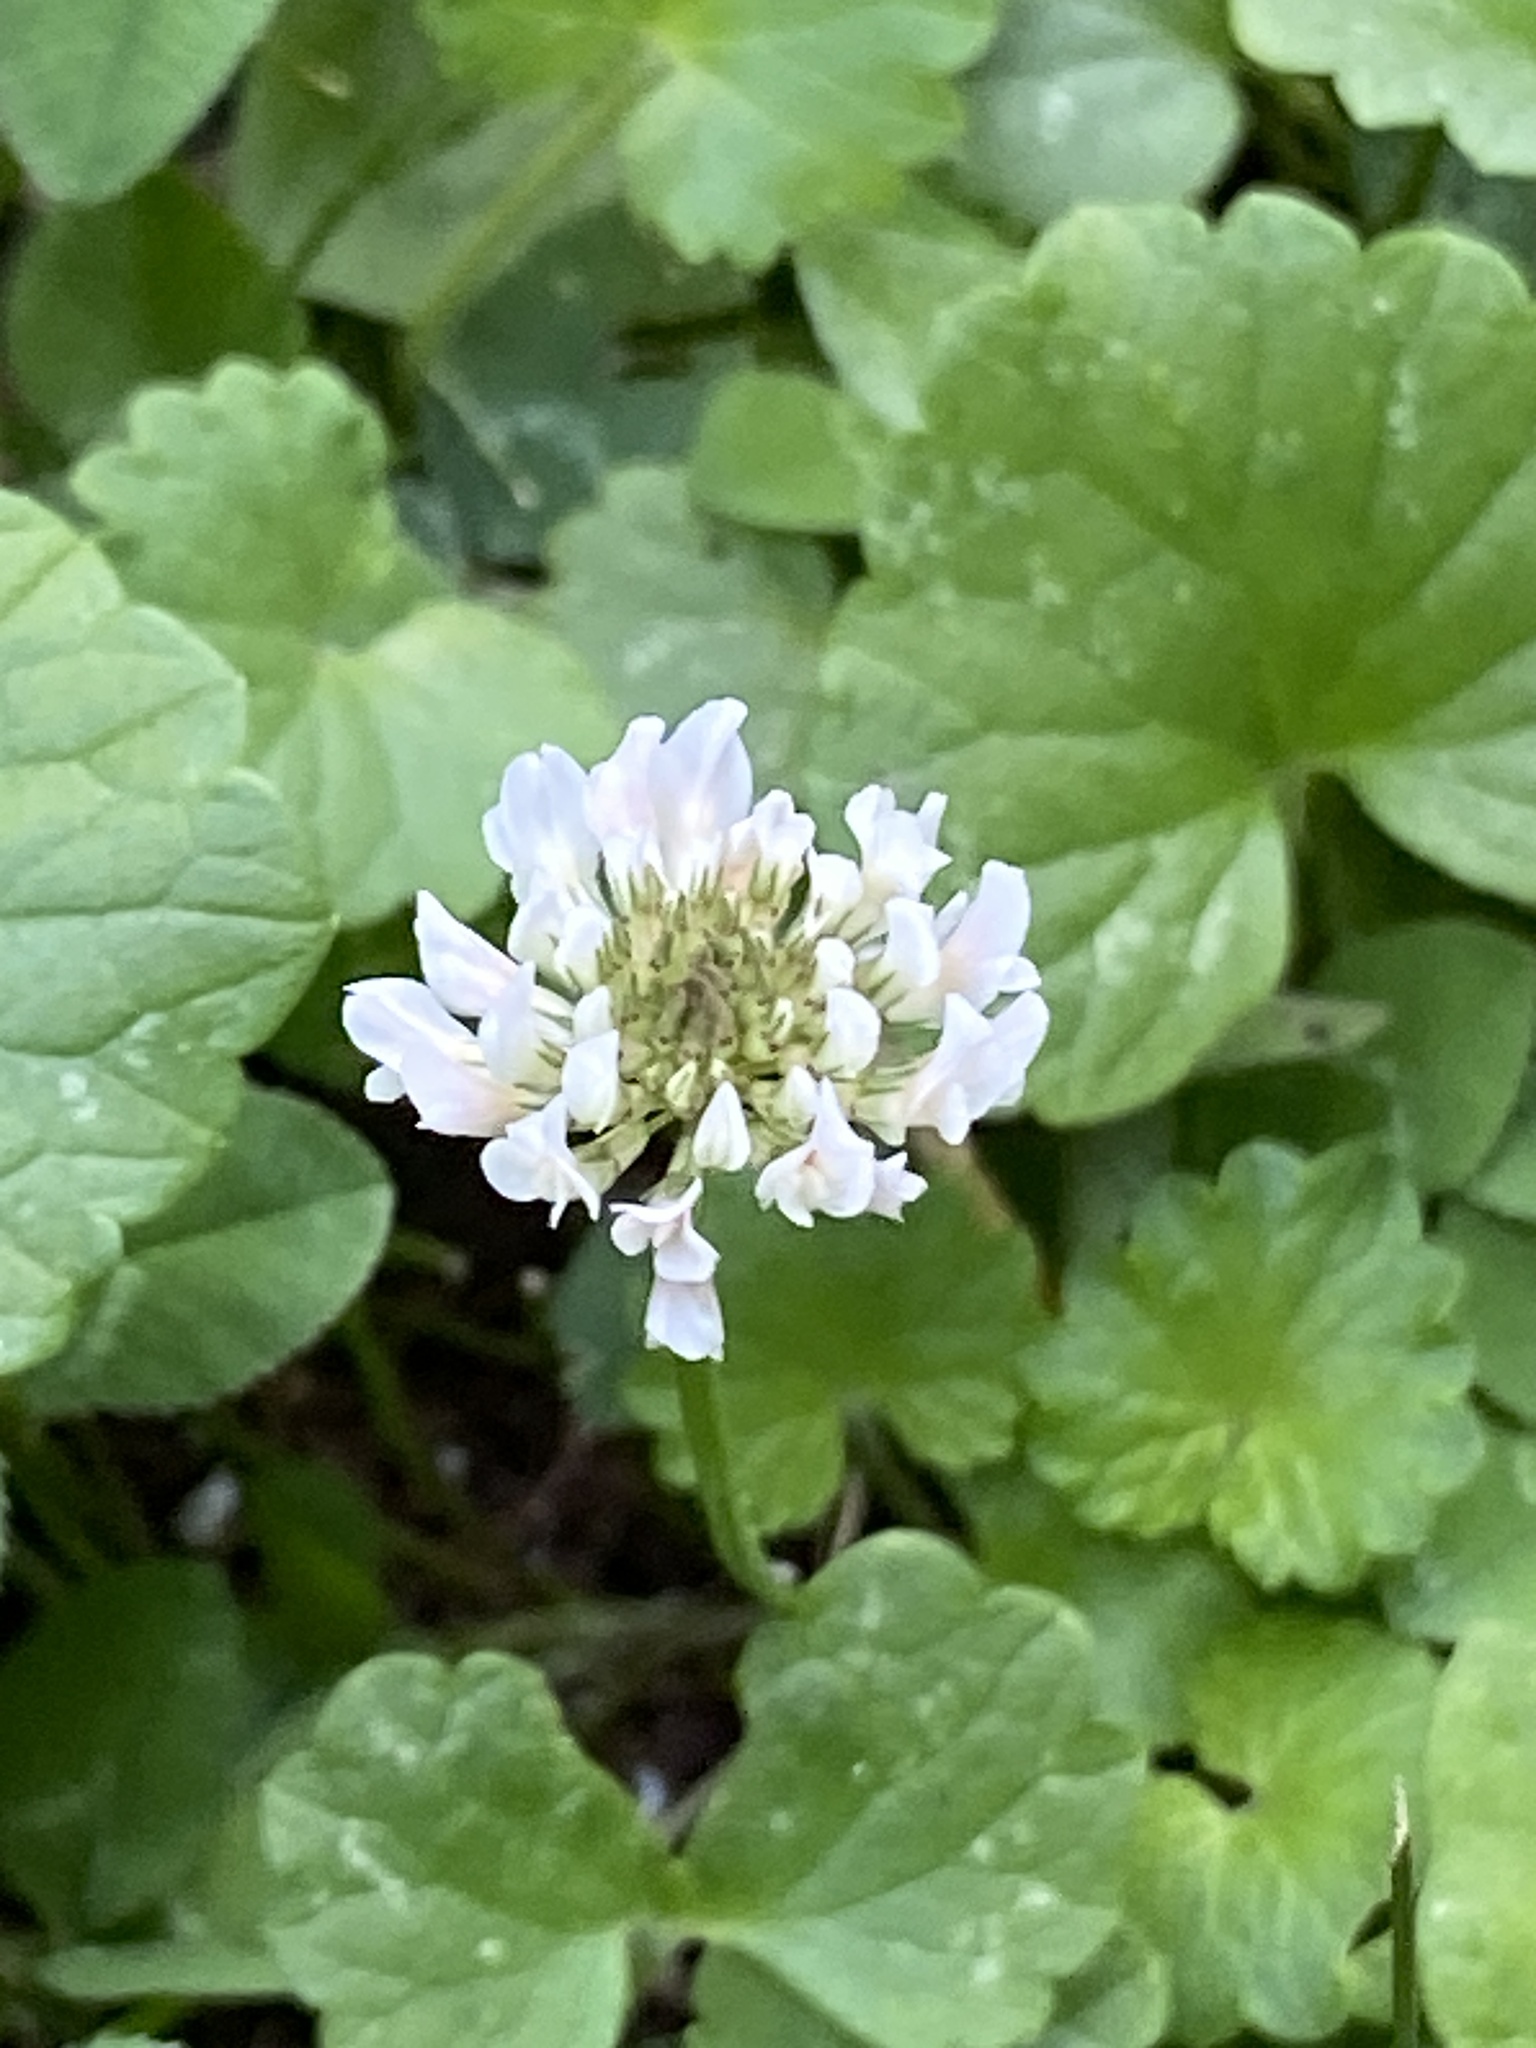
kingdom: Plantae
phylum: Tracheophyta
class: Magnoliopsida
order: Fabales
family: Fabaceae
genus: Trifolium
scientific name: Trifolium repens
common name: White clover
